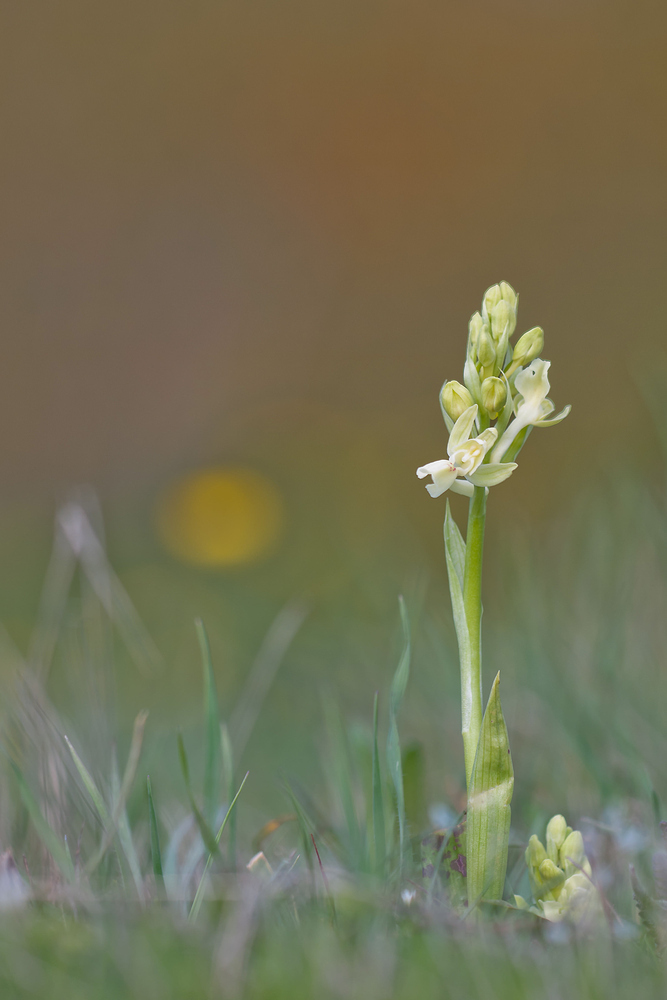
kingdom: Plantae
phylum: Tracheophyta
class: Liliopsida
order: Asparagales
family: Orchidaceae
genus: Orchis
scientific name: Orchis provincialis
